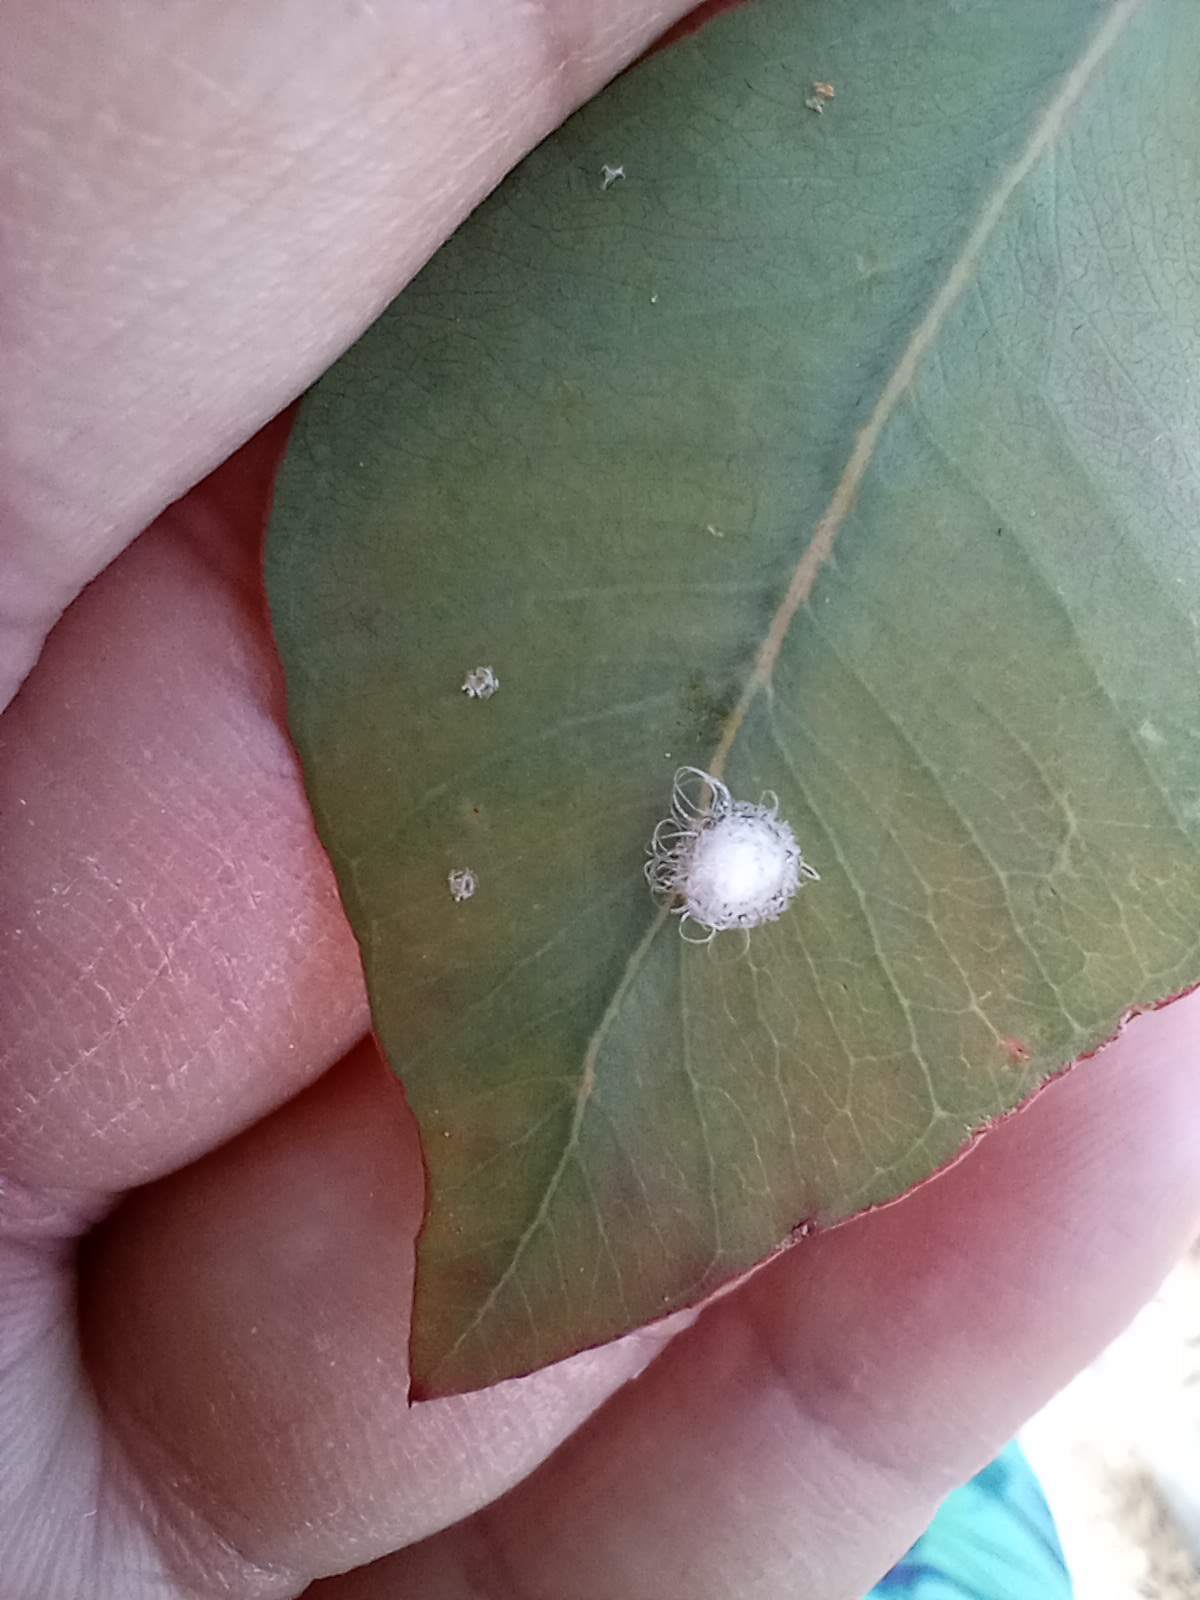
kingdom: Animalia
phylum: Arthropoda
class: Insecta
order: Hemiptera
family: Aphalaridae
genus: Glycaspis
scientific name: Glycaspis brimblecombei
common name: Red gum lerp psyllid
